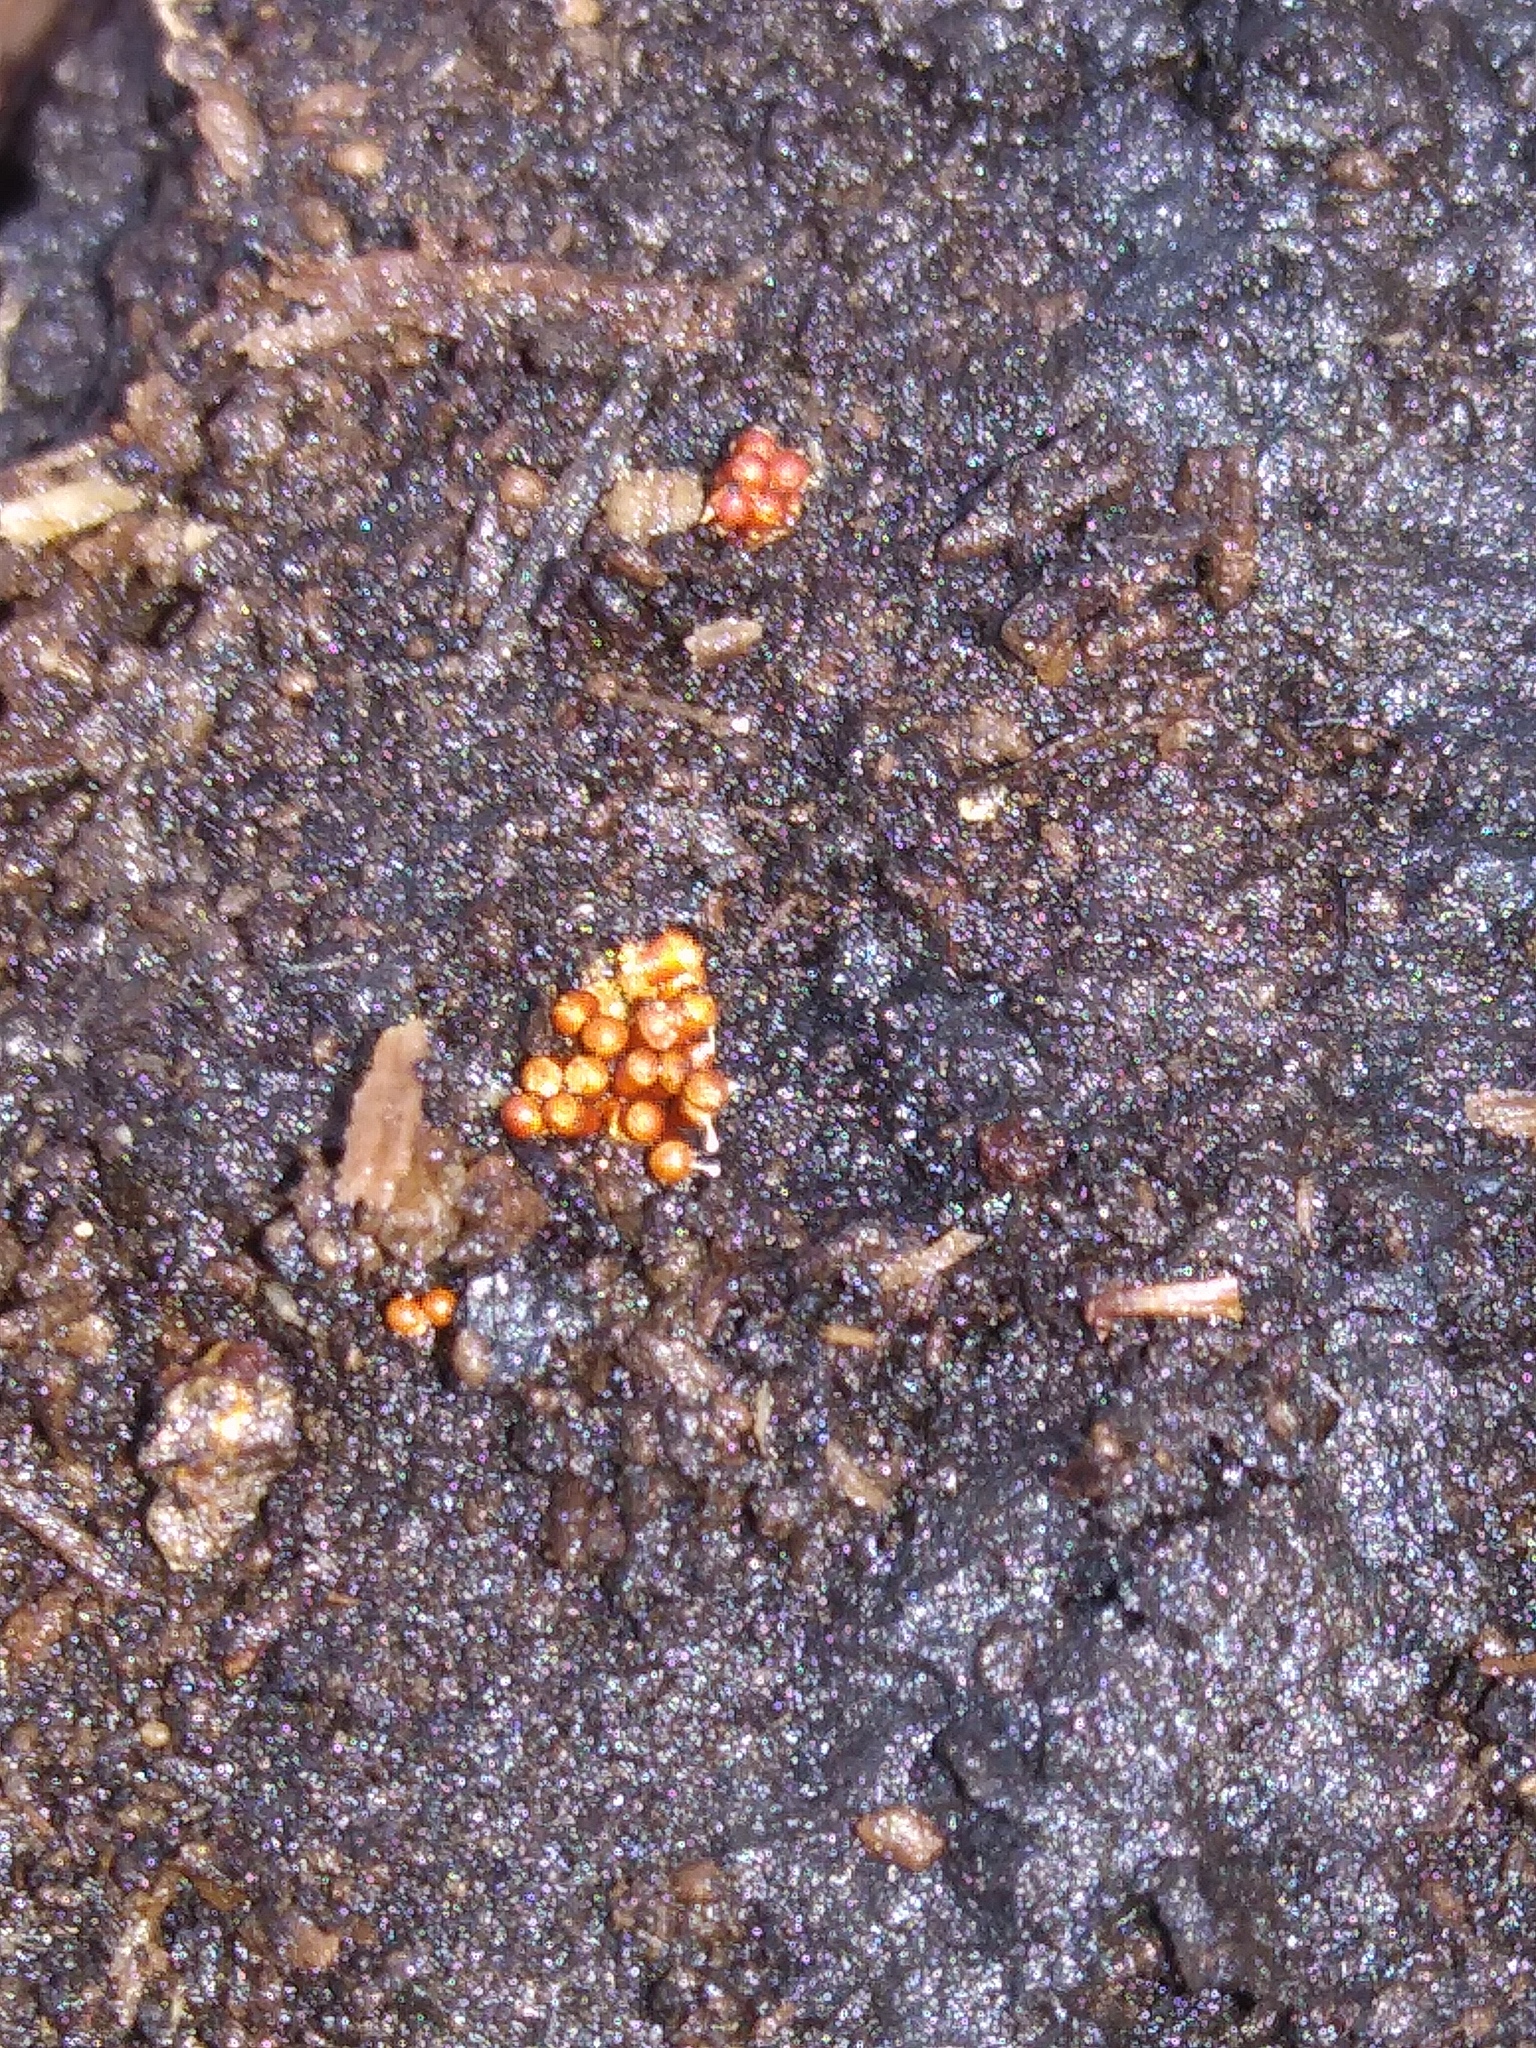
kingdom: Fungi
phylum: Ascomycota
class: Sordariomycetes
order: Hypocreales
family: Ophiocordycipitaceae
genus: Polycephalomyces
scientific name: Polycephalomyces tomentosus
